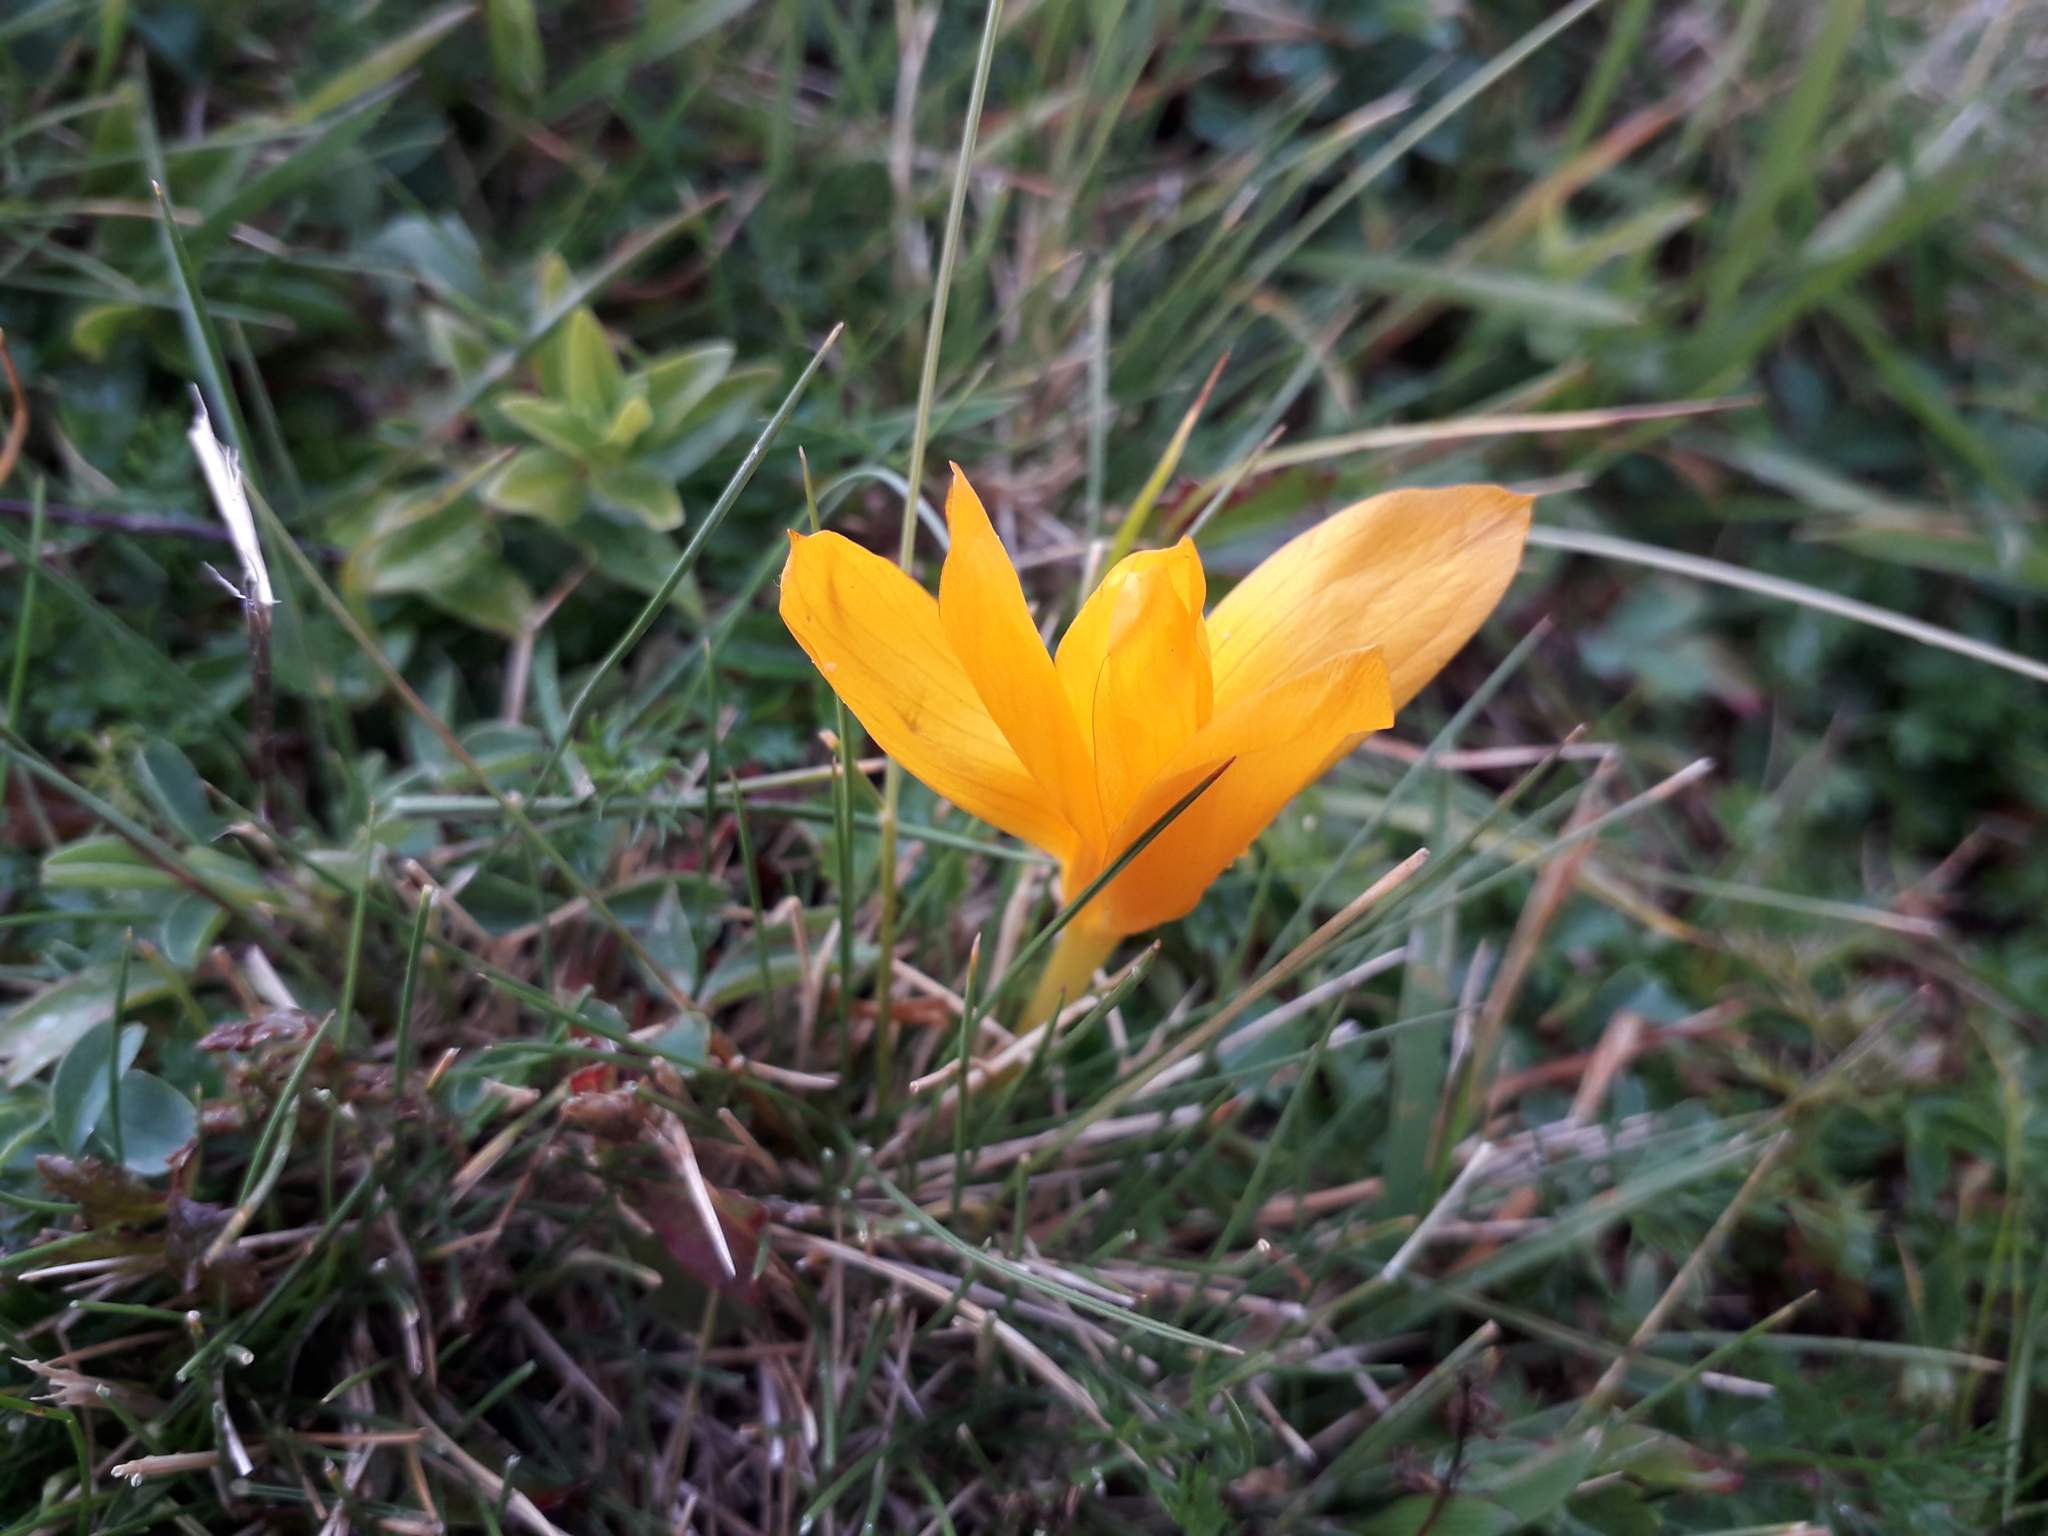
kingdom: Plantae
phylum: Tracheophyta
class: Liliopsida
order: Asparagales
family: Iridaceae
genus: Crocus
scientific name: Crocus scharojanii
